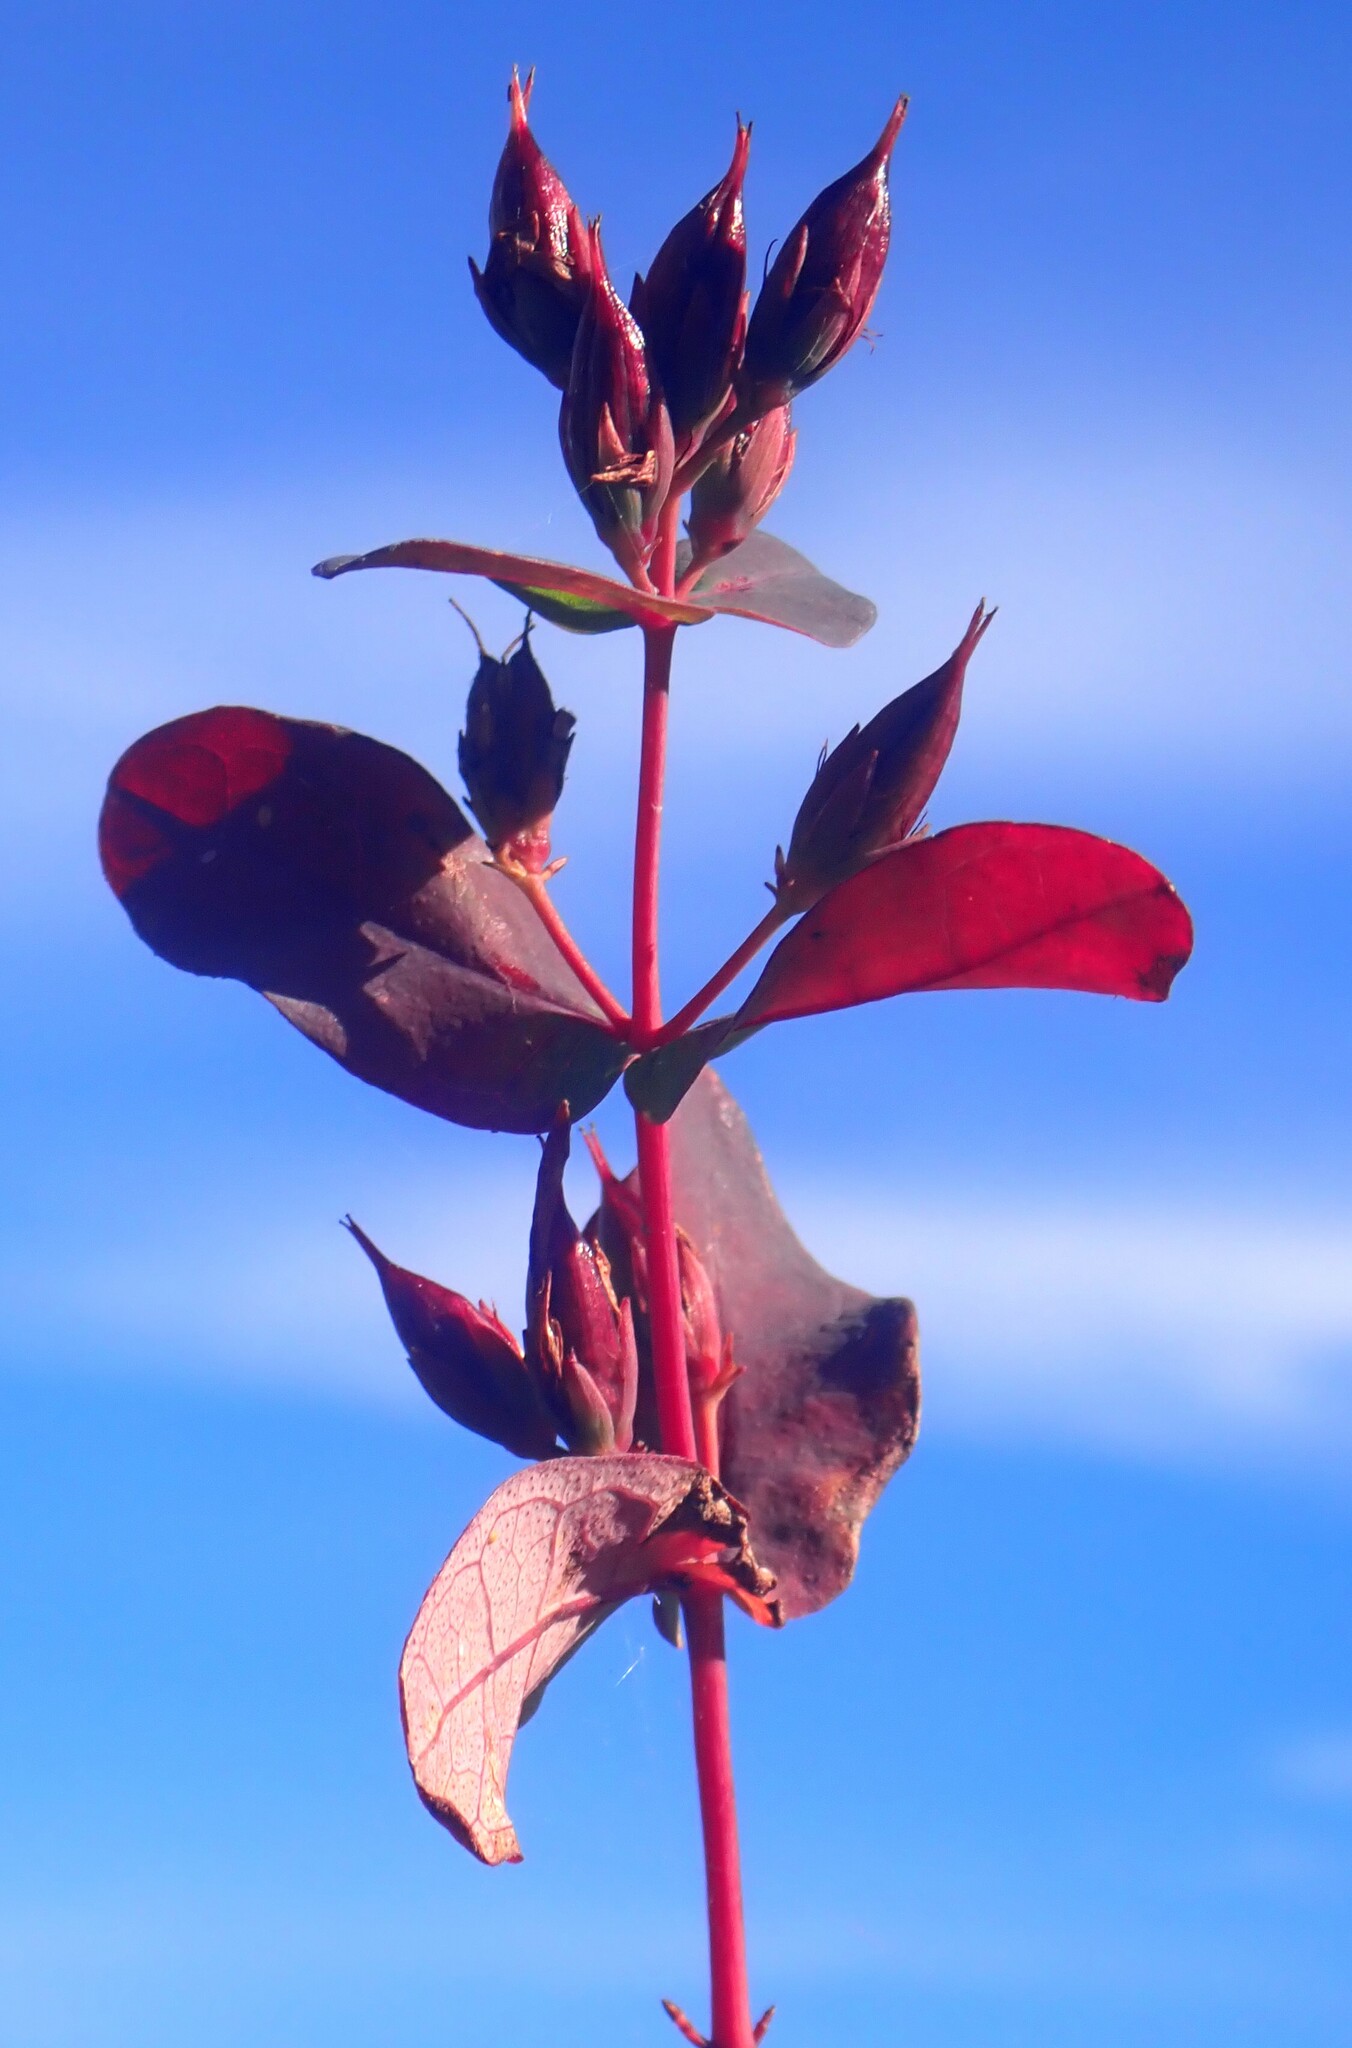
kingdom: Plantae
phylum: Tracheophyta
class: Magnoliopsida
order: Malpighiales
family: Hypericaceae
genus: Triadenum
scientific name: Triadenum walteri
